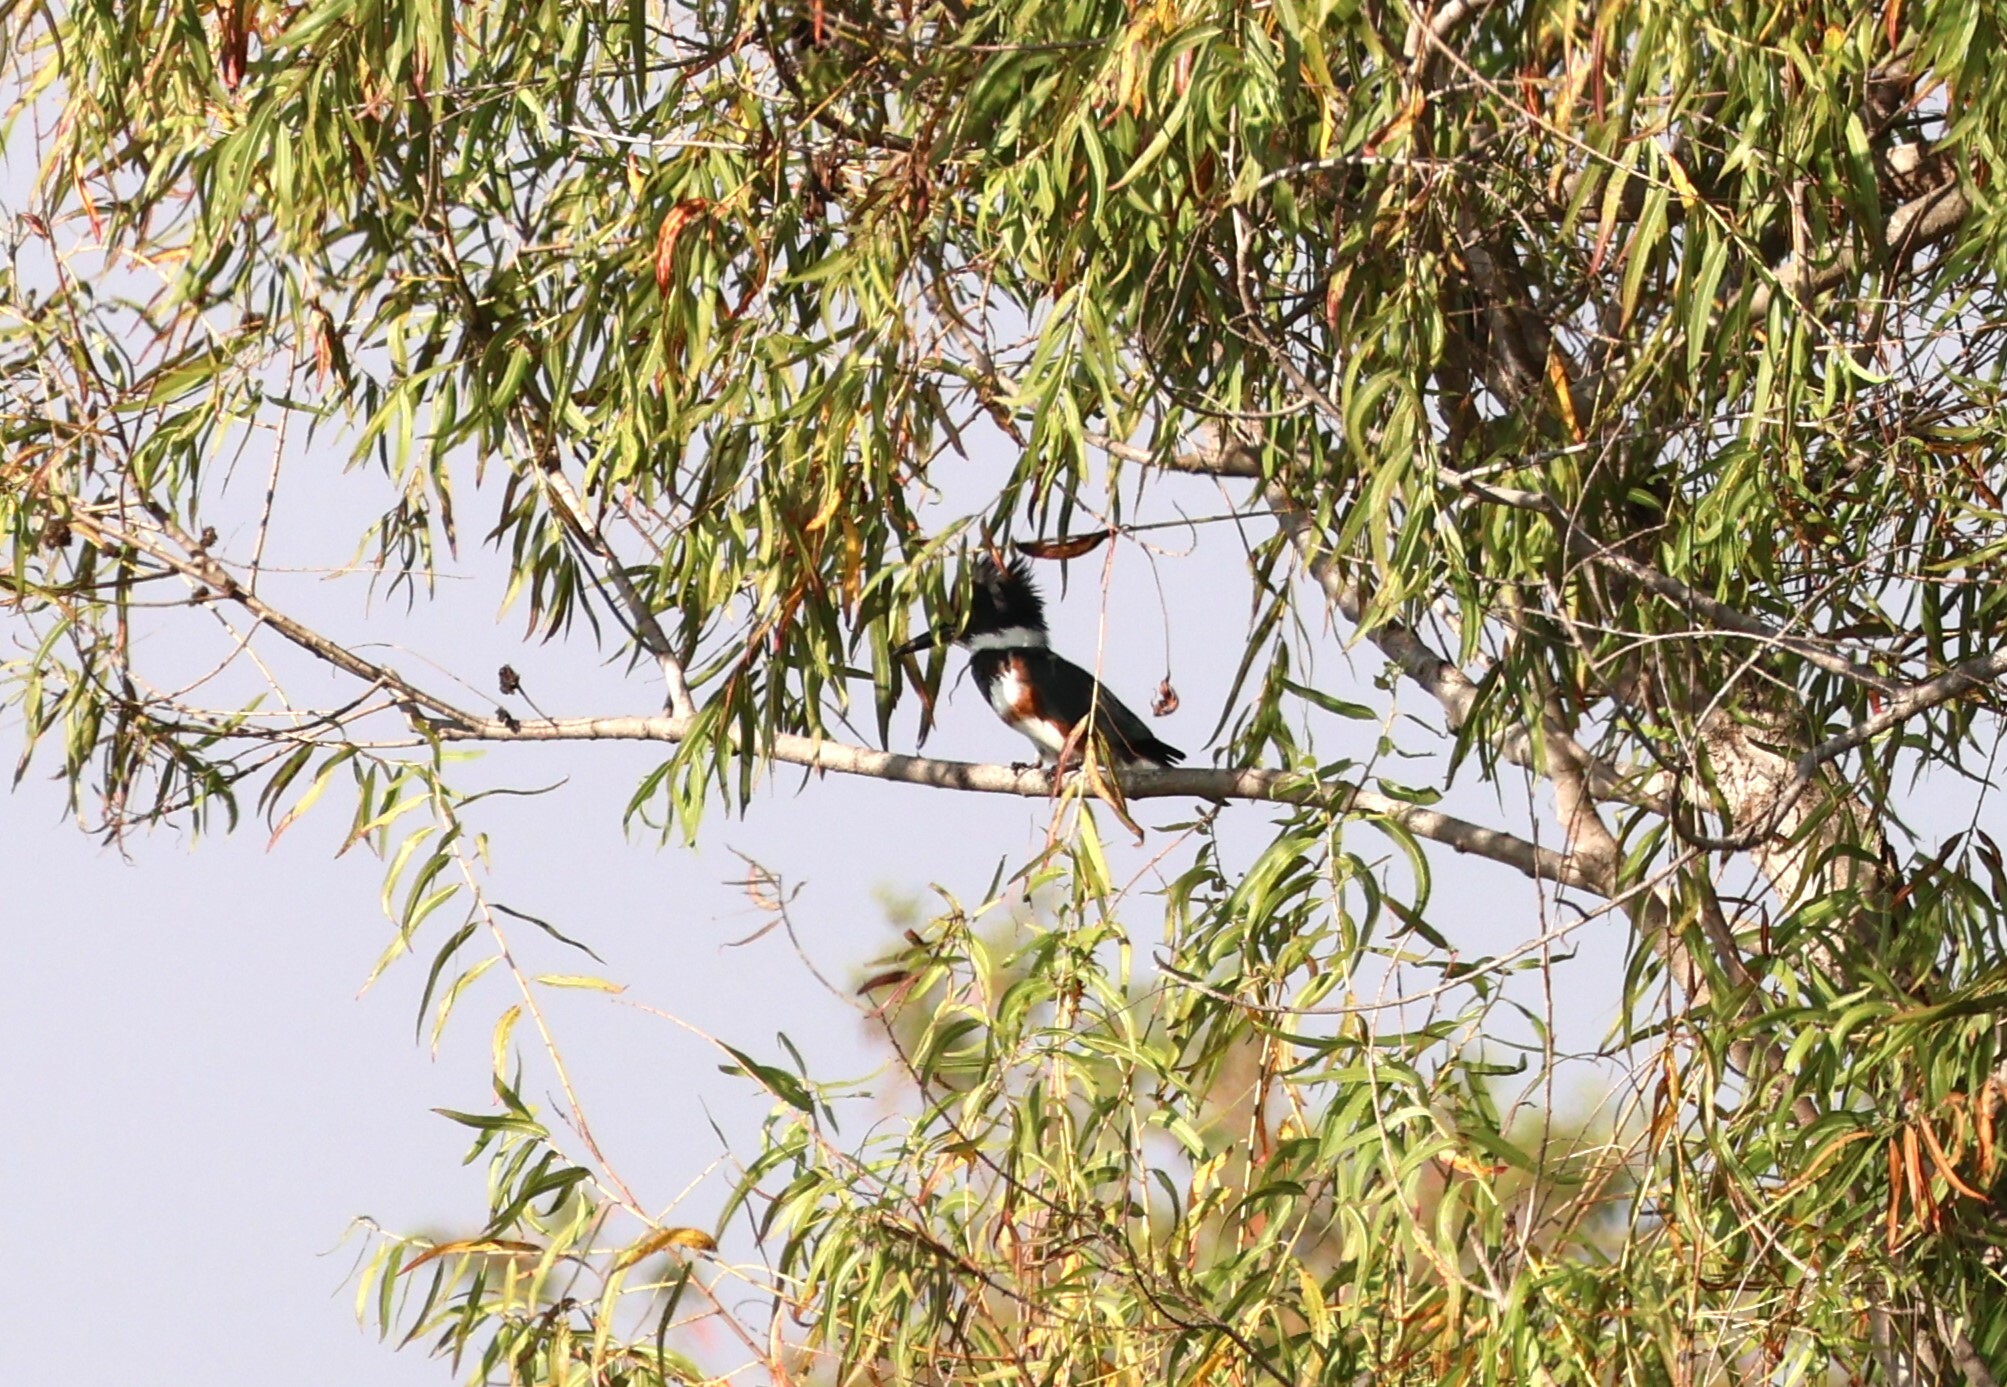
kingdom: Animalia
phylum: Chordata
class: Aves
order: Coraciiformes
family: Alcedinidae
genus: Megaceryle
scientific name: Megaceryle alcyon
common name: Belted kingfisher
